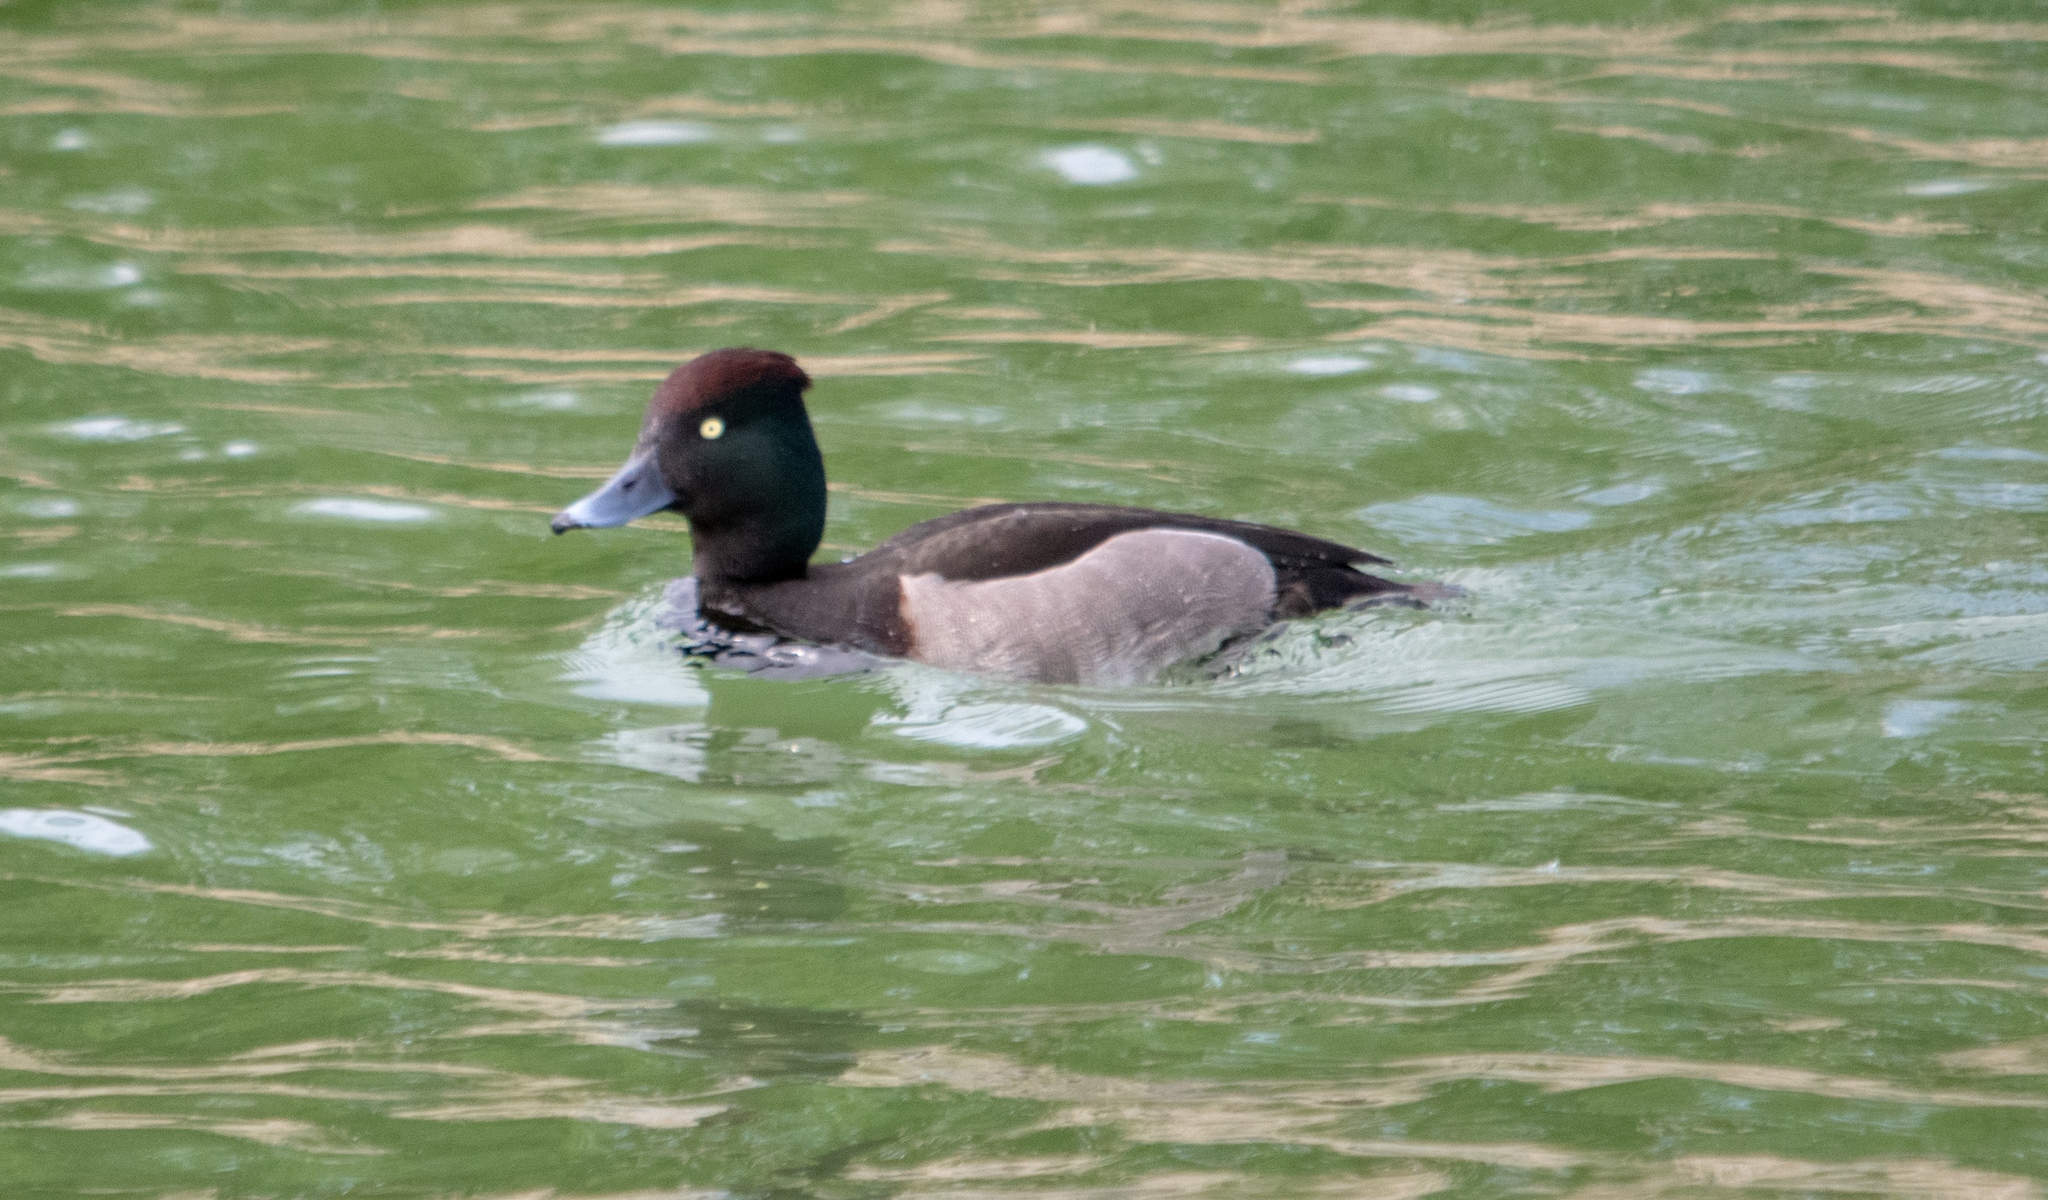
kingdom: Animalia
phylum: Chordata
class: Aves
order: Anseriformes
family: Anatidae
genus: Aythya
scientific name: Aythya fuligula
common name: Tufted duck
